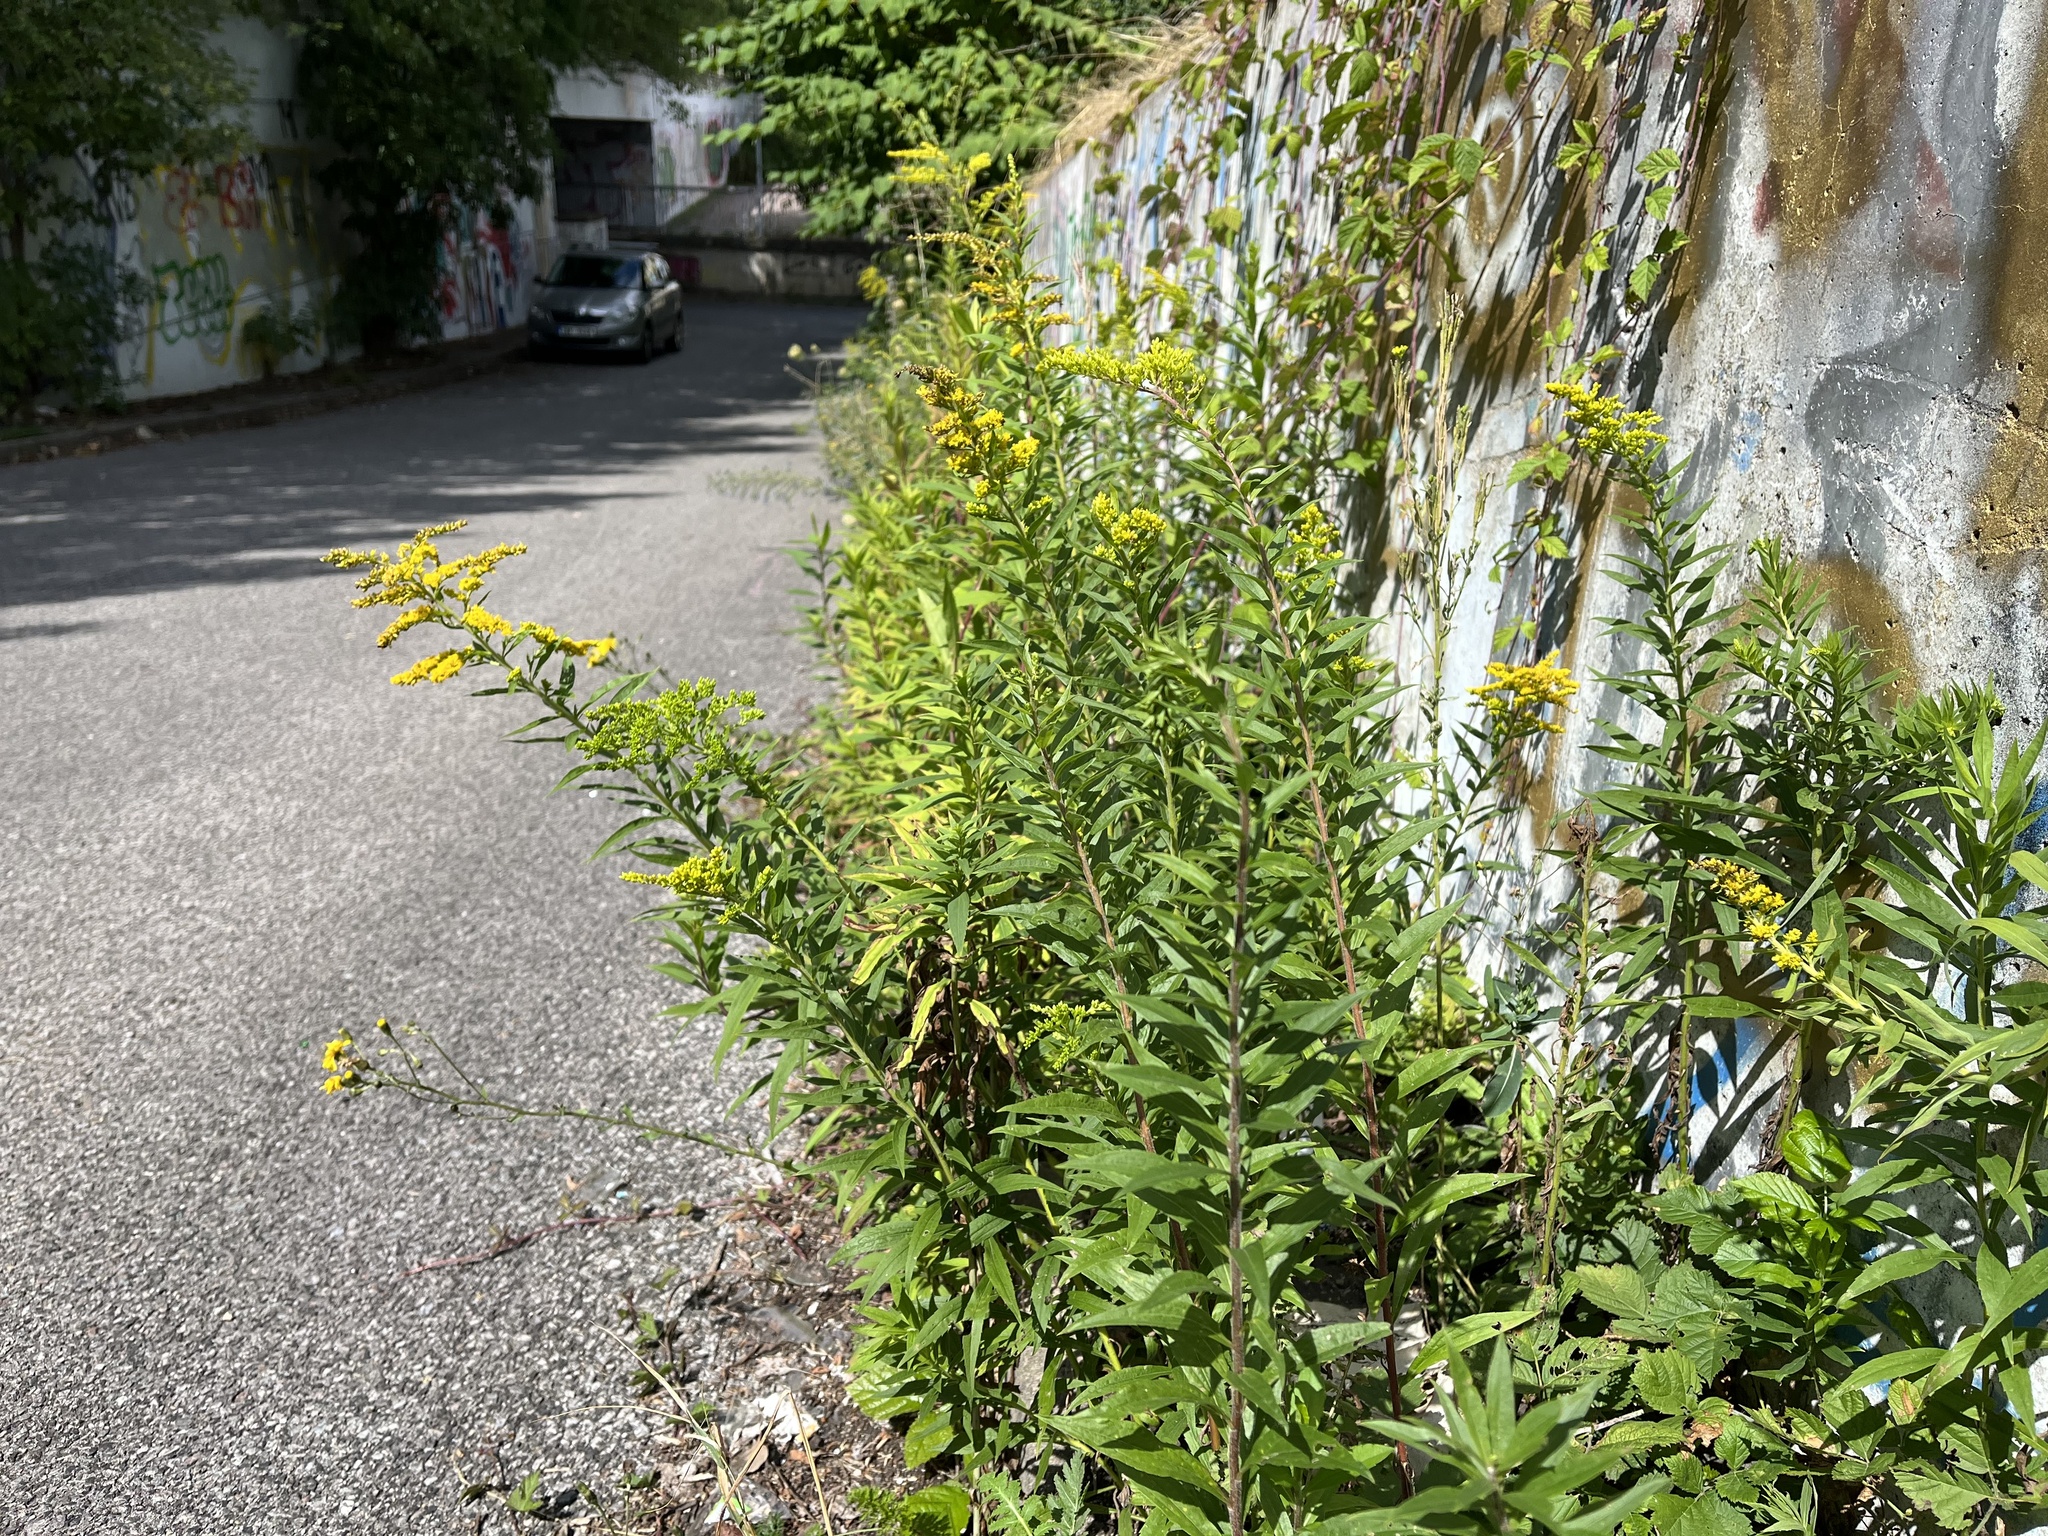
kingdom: Plantae
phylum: Tracheophyta
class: Magnoliopsida
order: Asterales
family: Asteraceae
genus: Solidago
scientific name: Solidago canadensis
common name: Canada goldenrod
